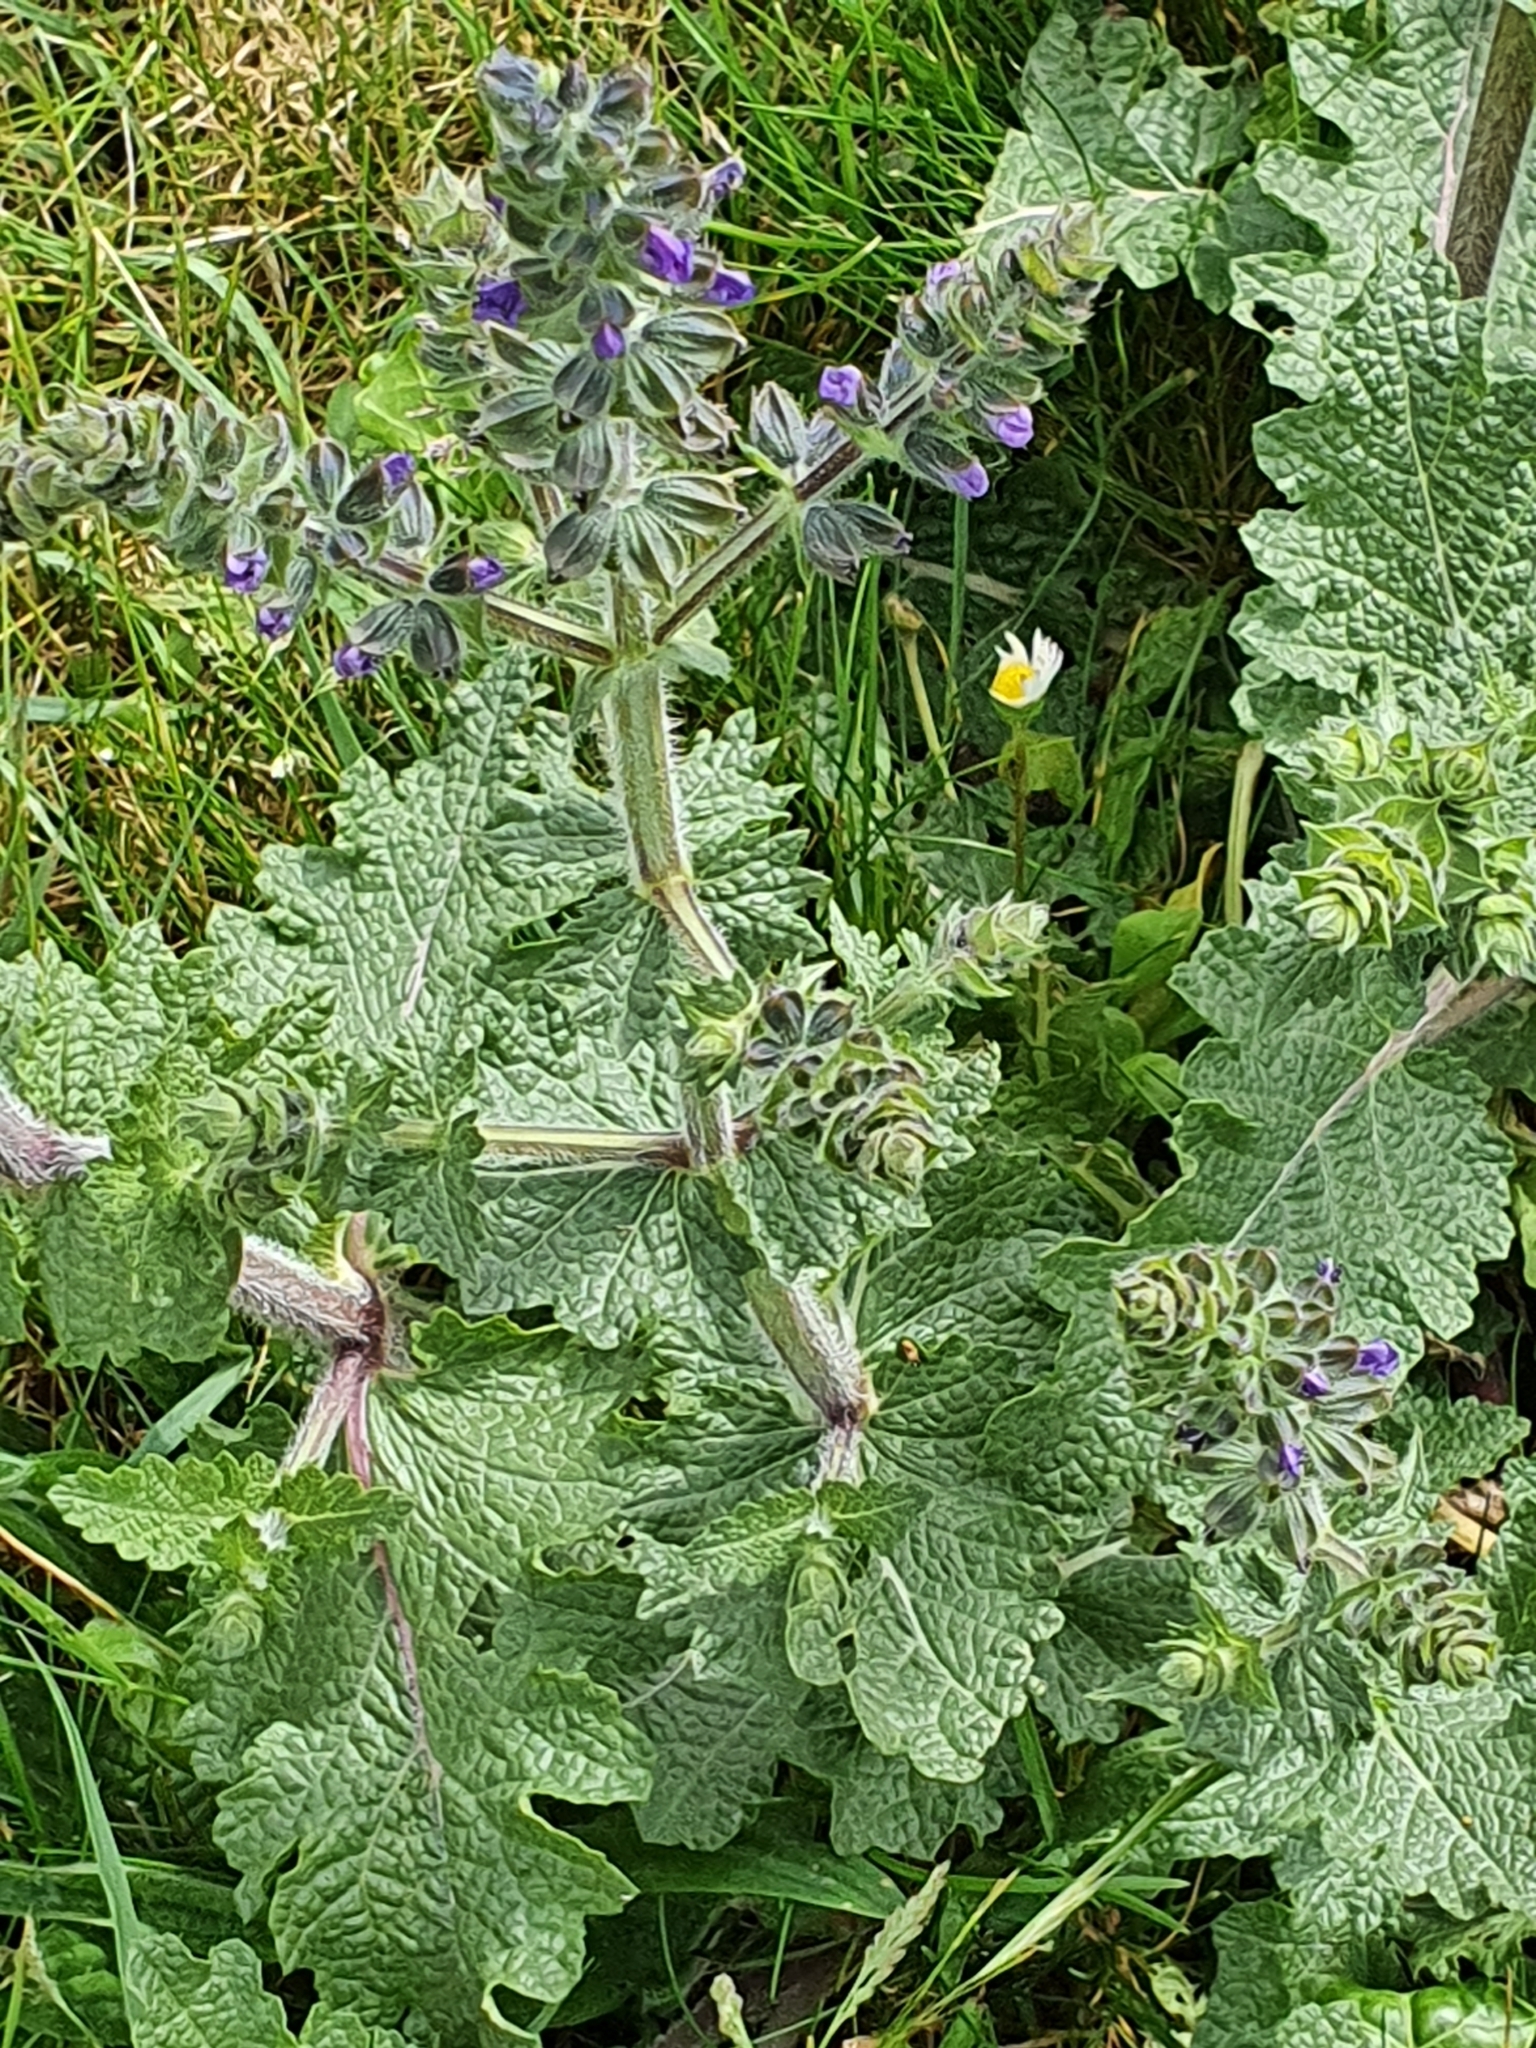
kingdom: Plantae
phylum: Tracheophyta
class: Magnoliopsida
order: Lamiales
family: Lamiaceae
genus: Salvia
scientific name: Salvia verbenaca
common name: Wild clary
